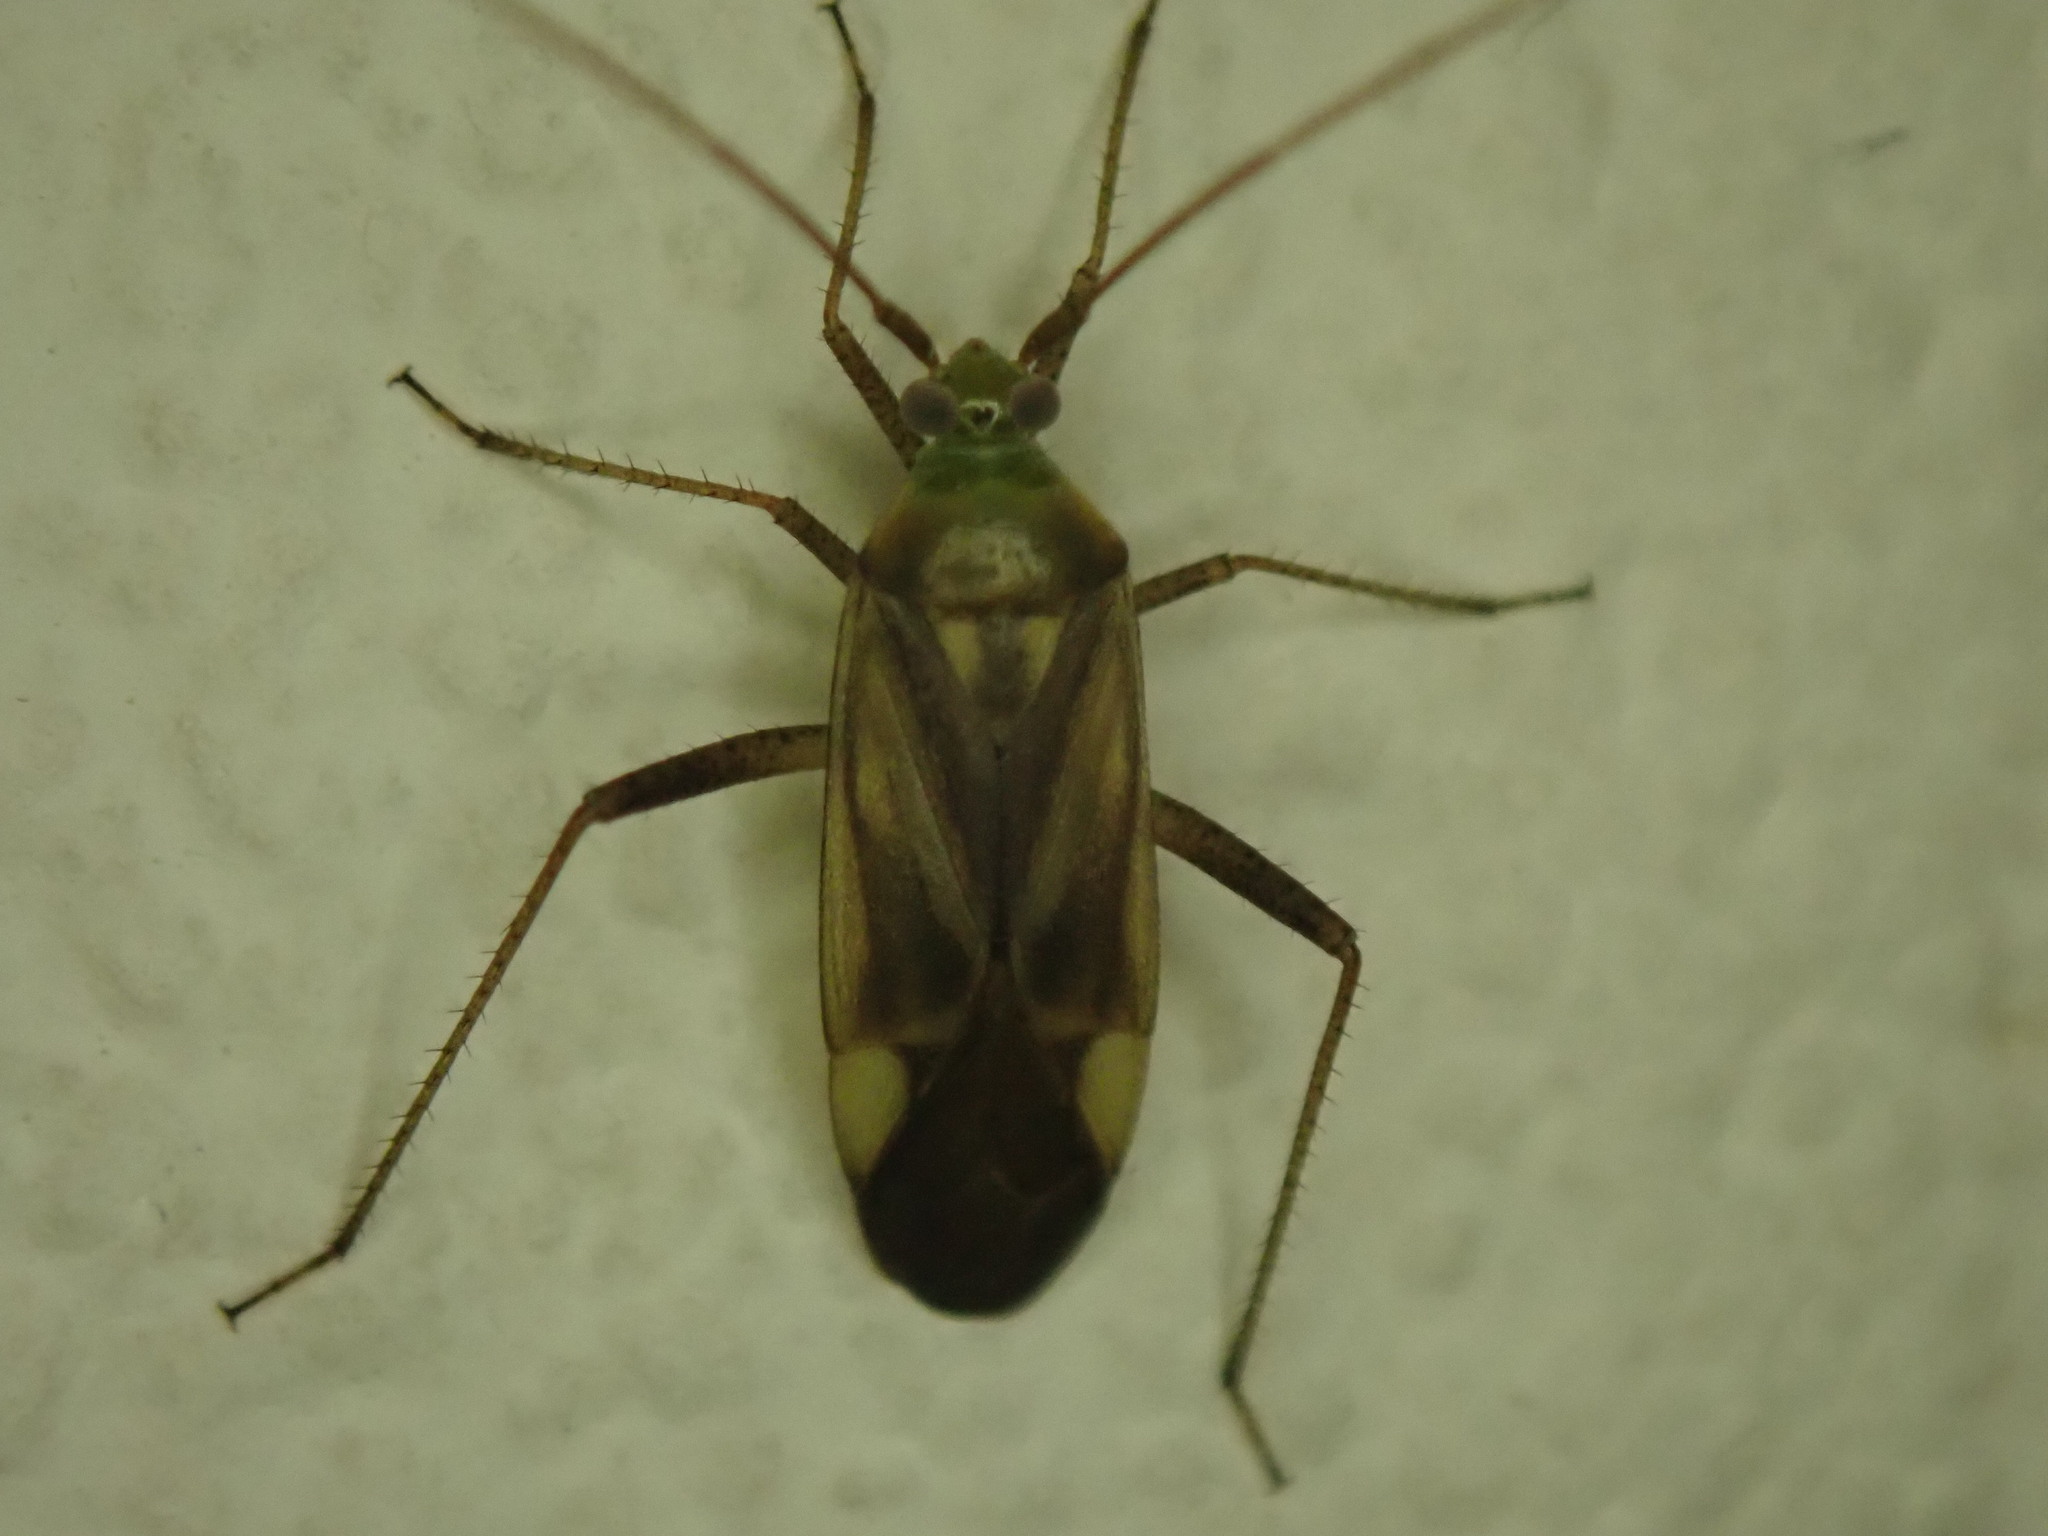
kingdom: Animalia
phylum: Arthropoda
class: Insecta
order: Hemiptera
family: Miridae
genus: Adelphocoris
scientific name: Adelphocoris lineolatus
